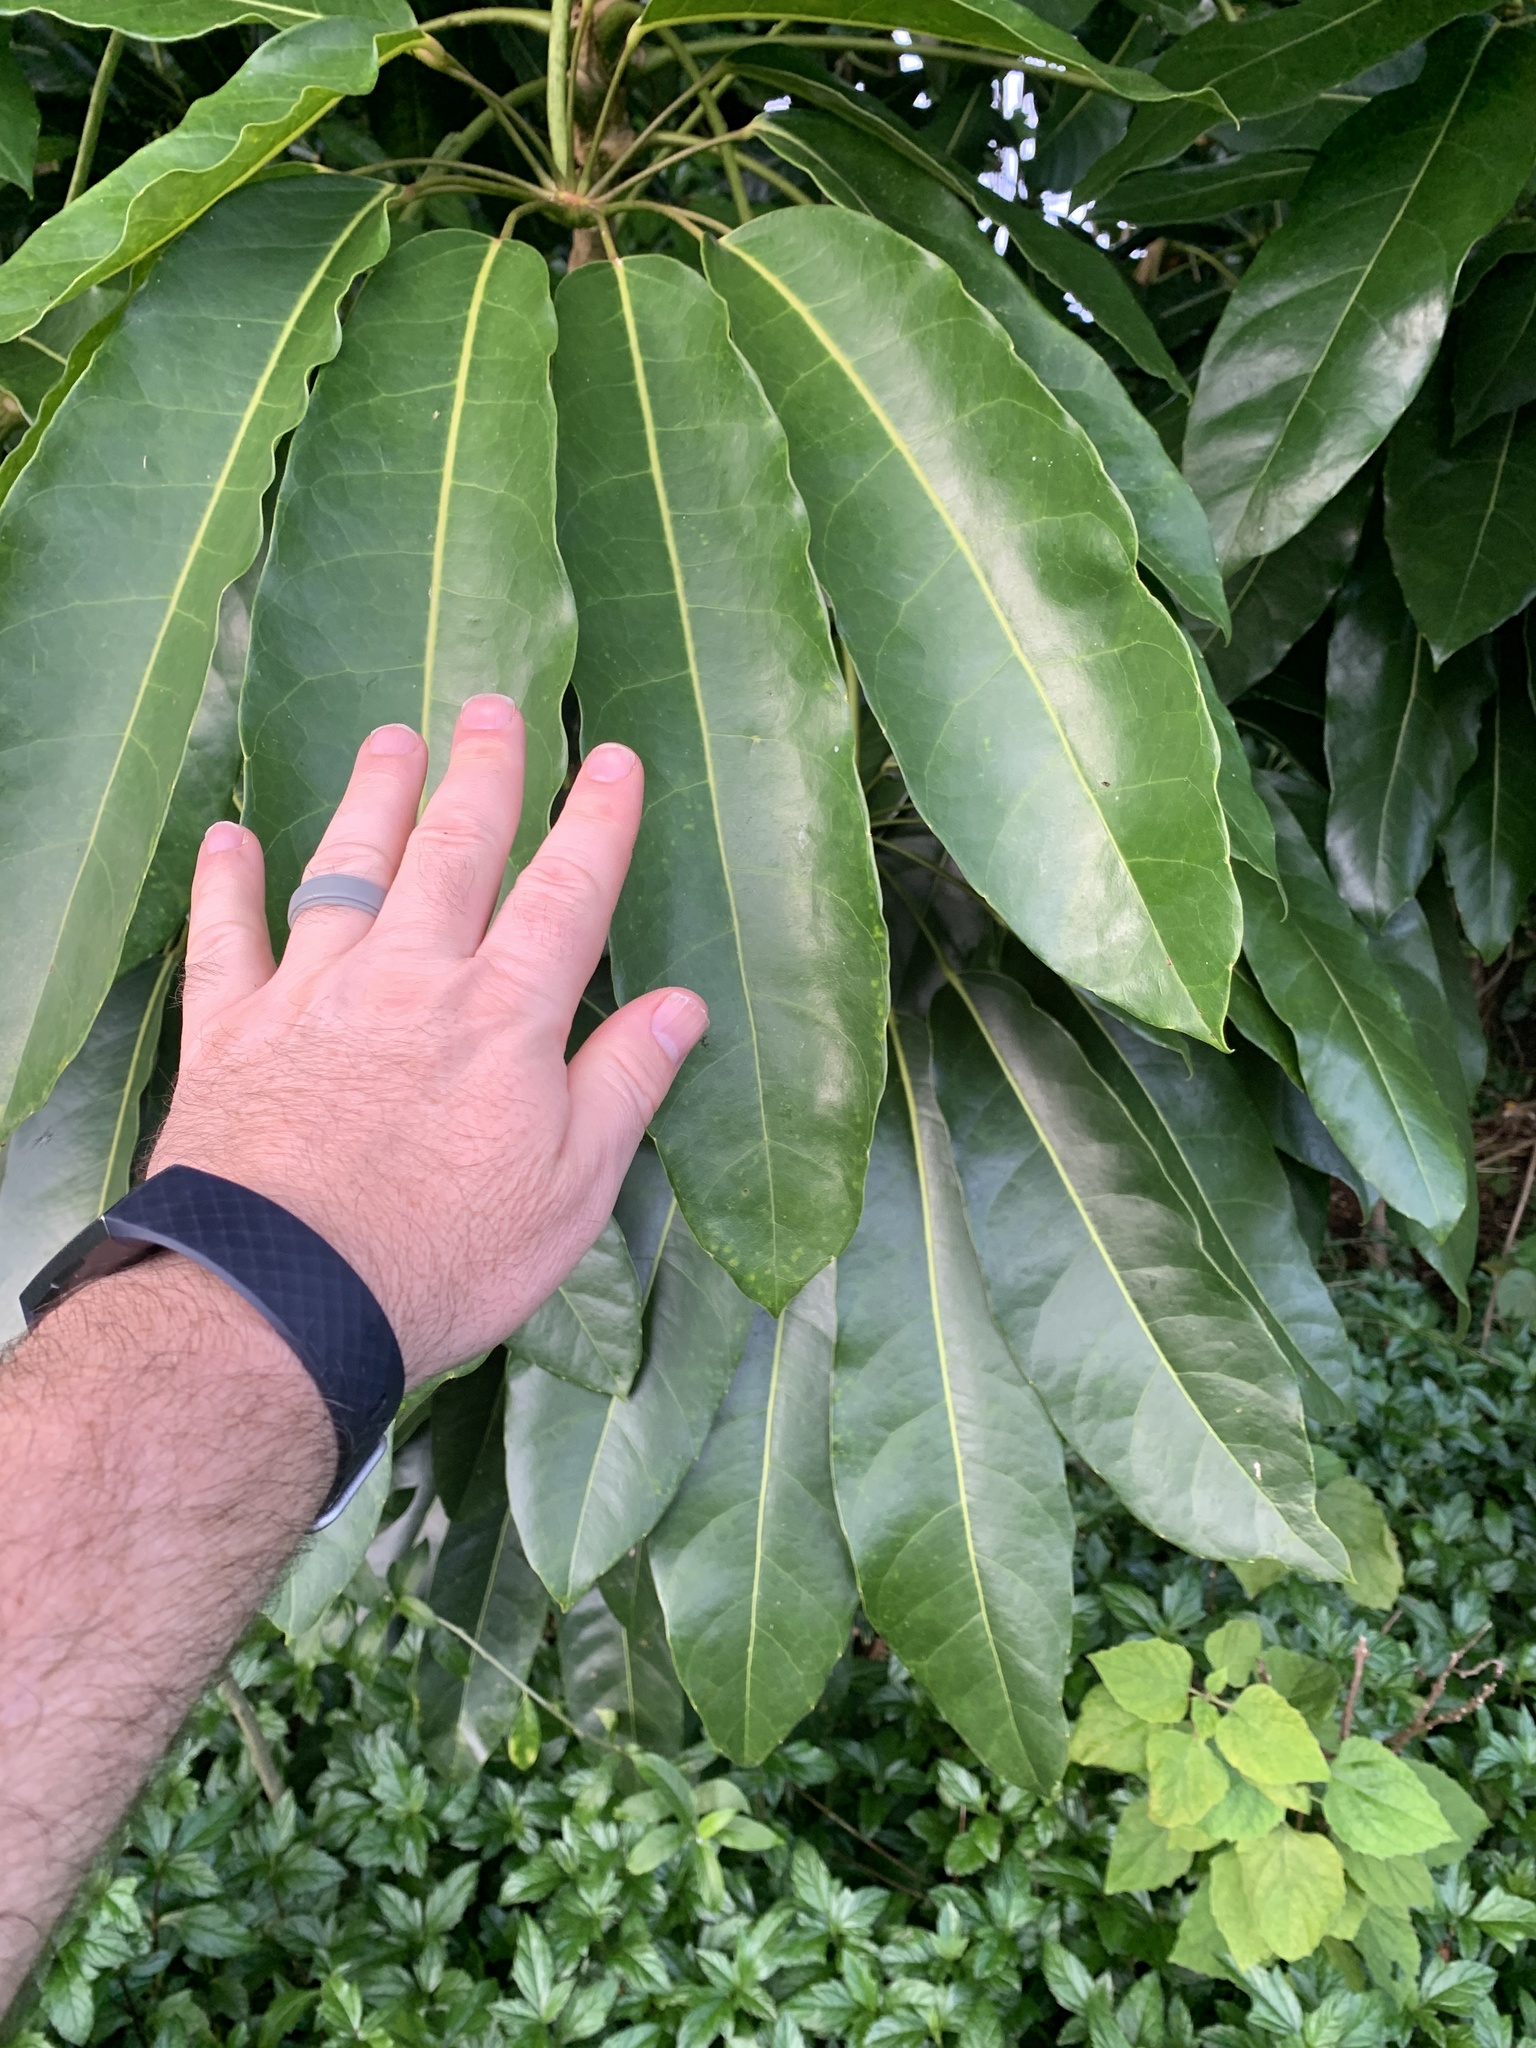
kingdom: Plantae
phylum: Tracheophyta
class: Magnoliopsida
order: Apiales
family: Araliaceae
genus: Heptapleurum
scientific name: Heptapleurum actinophyllum
